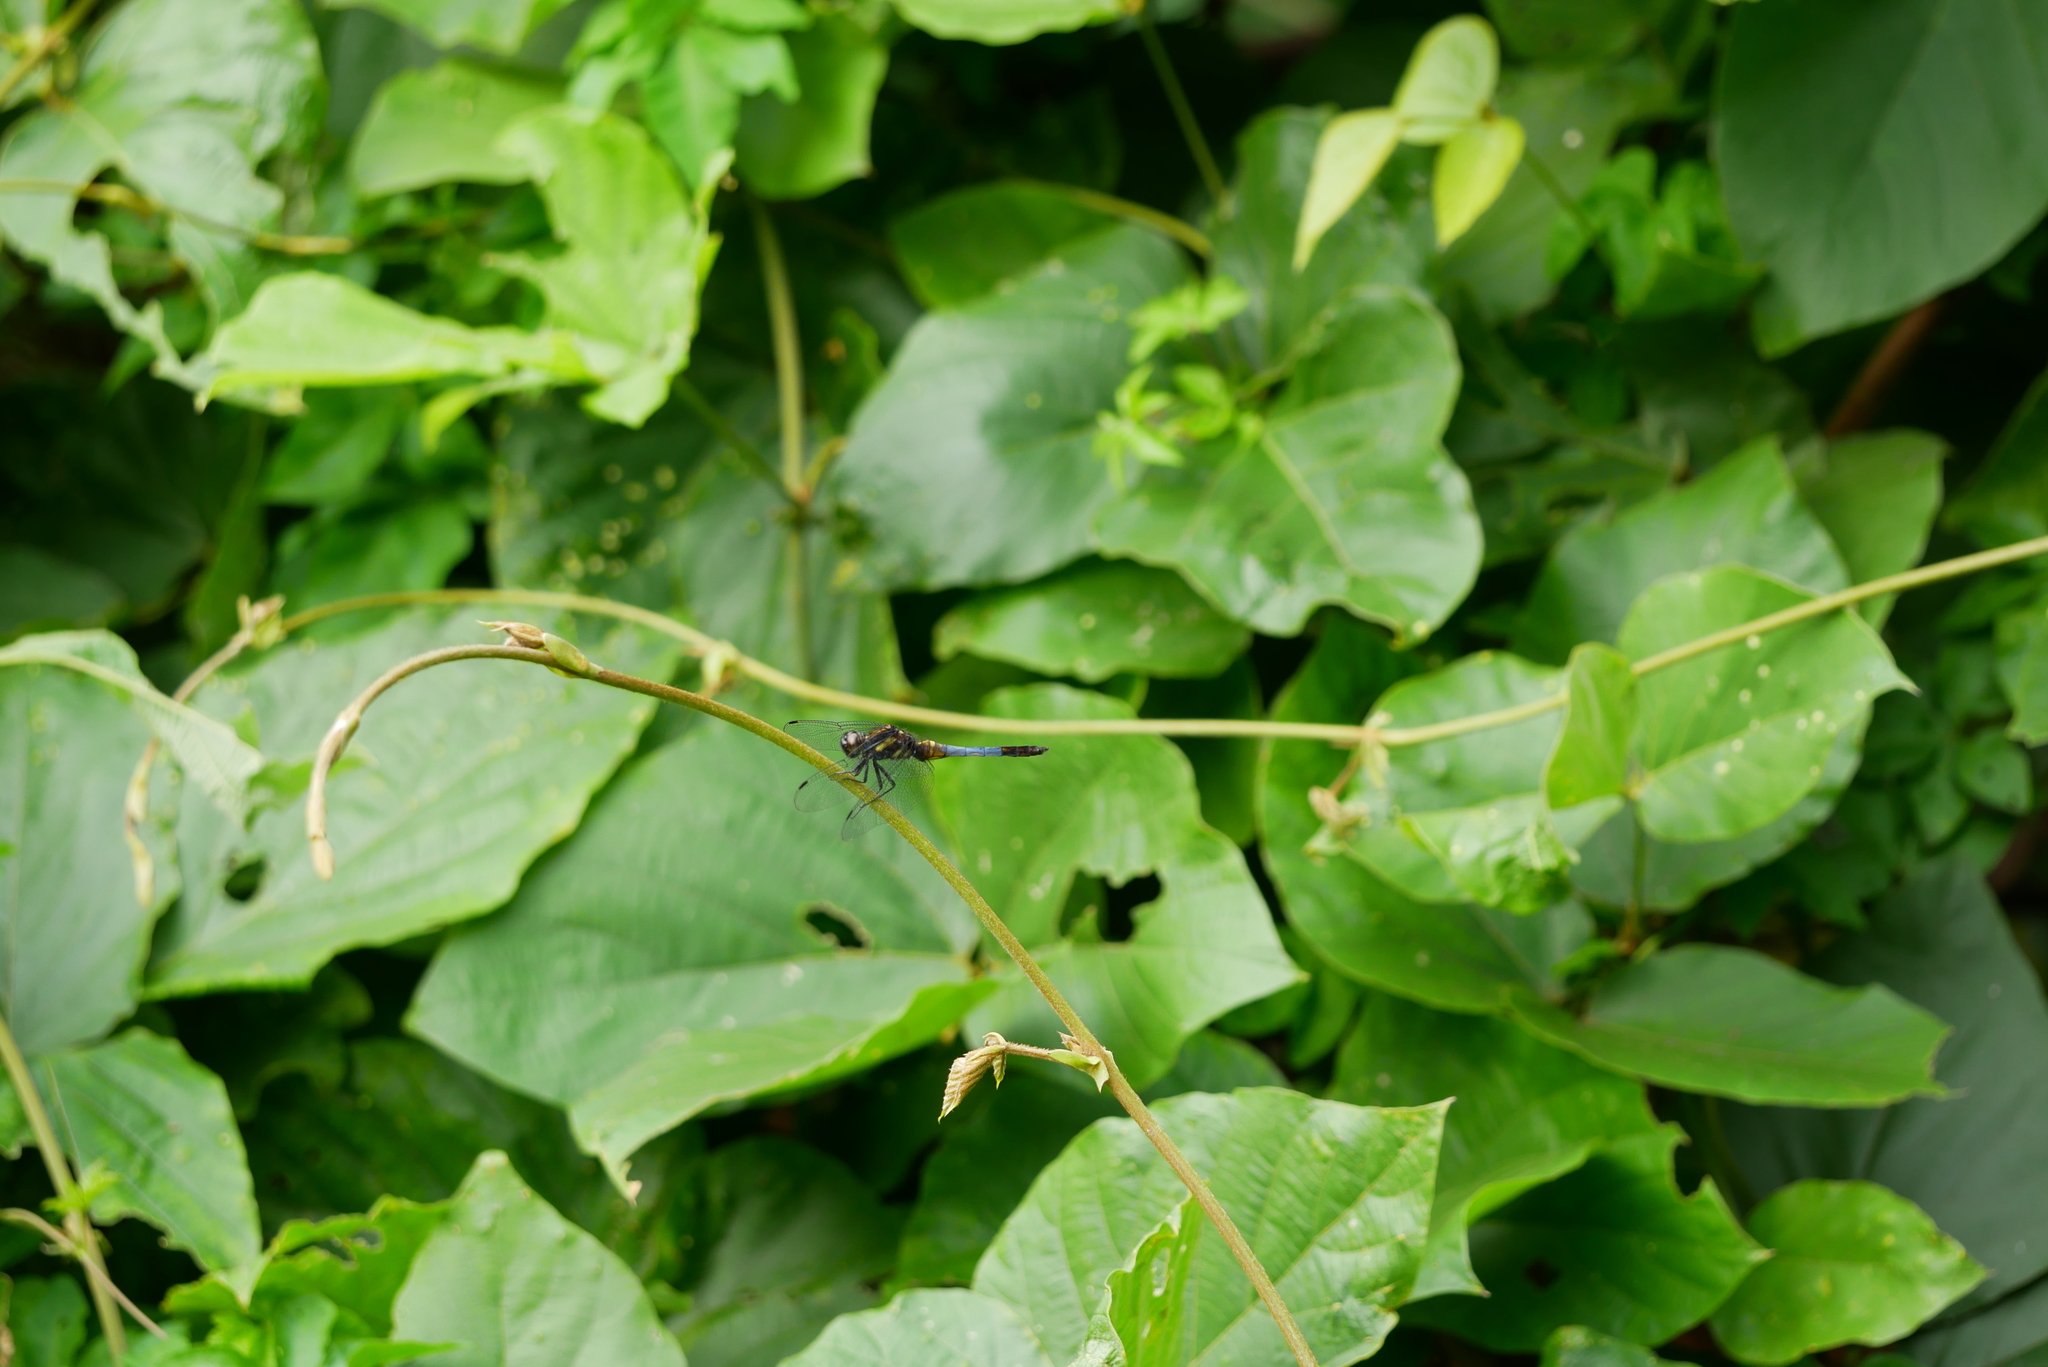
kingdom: Animalia
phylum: Arthropoda
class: Insecta
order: Odonata
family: Libellulidae
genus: Orthetrum
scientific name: Orthetrum triangulare
